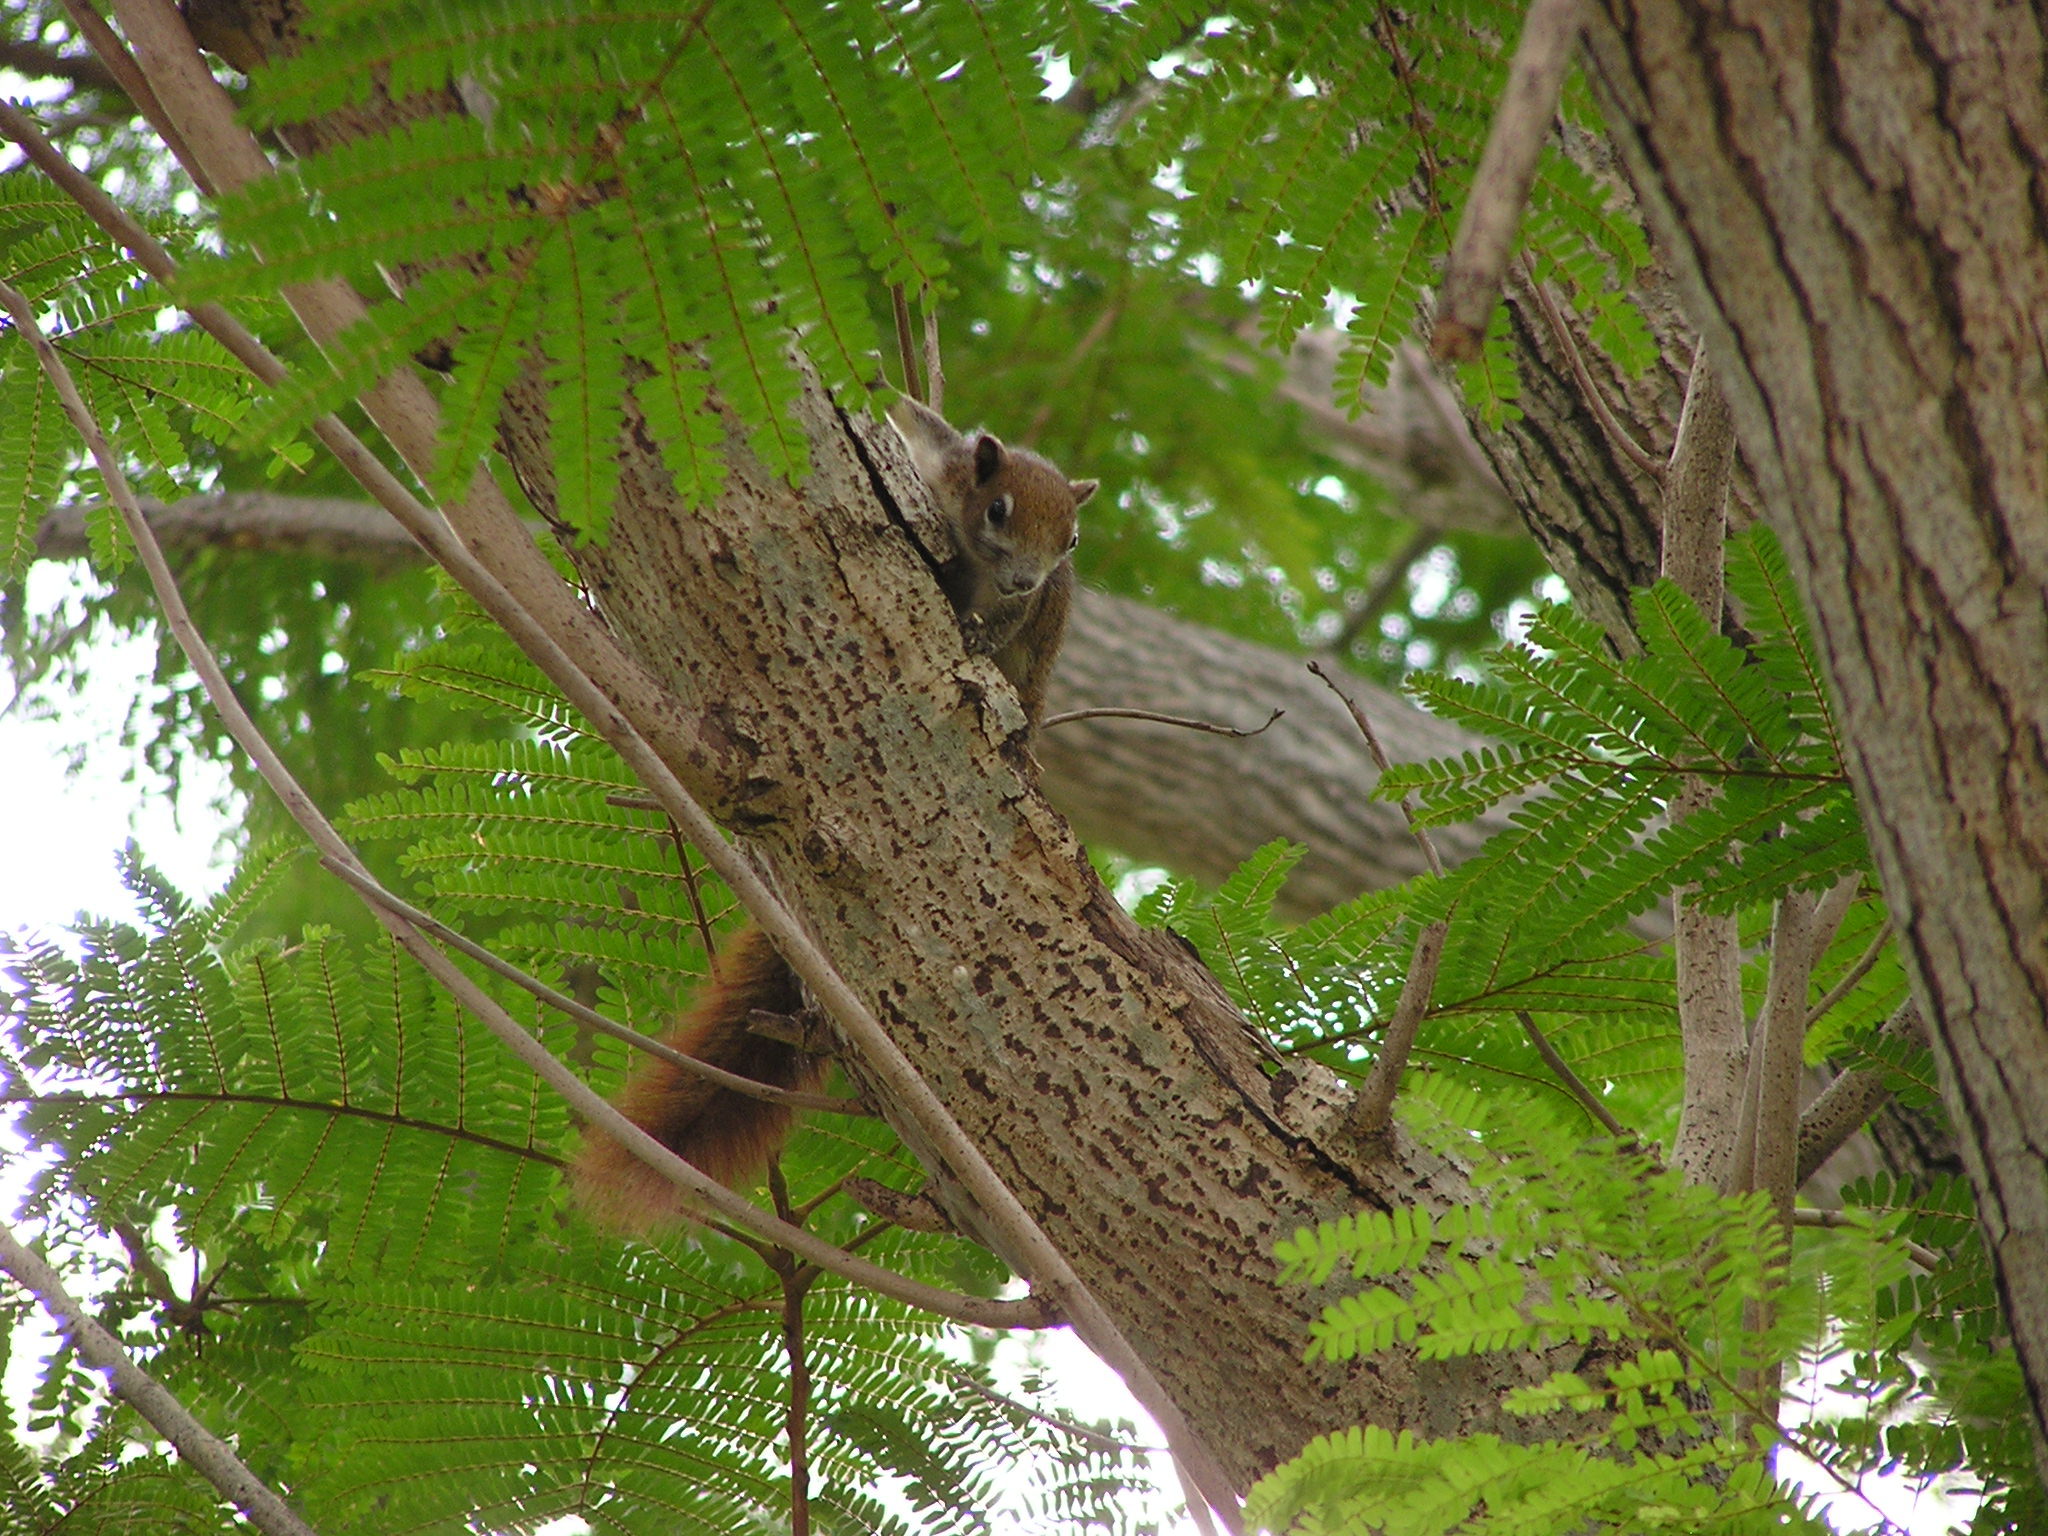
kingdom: Animalia
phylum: Chordata
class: Mammalia
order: Rodentia
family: Sciuridae
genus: Callosciurus
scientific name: Callosciurus finlaysonii
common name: Finlayson's squirrel
